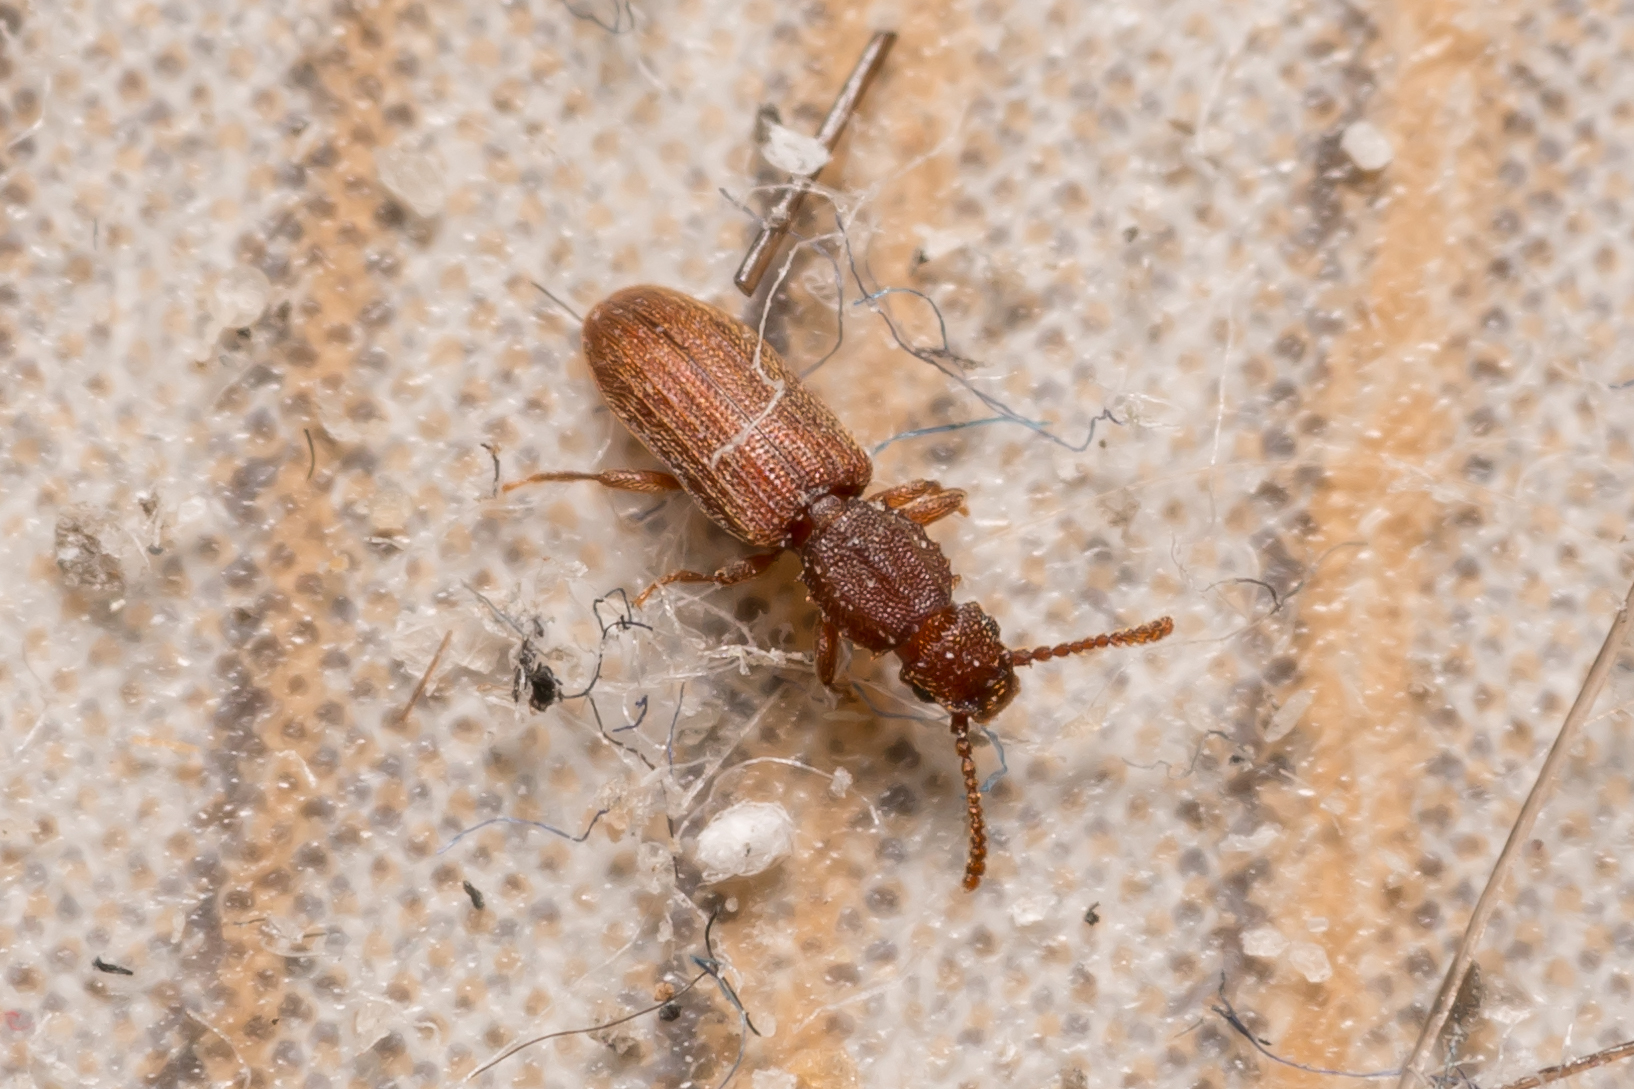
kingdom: Animalia
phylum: Arthropoda
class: Insecta
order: Coleoptera
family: Silvanidae
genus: Oryzaephilus
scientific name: Oryzaephilus surinamensis
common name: Sawtoothed grain beetle
